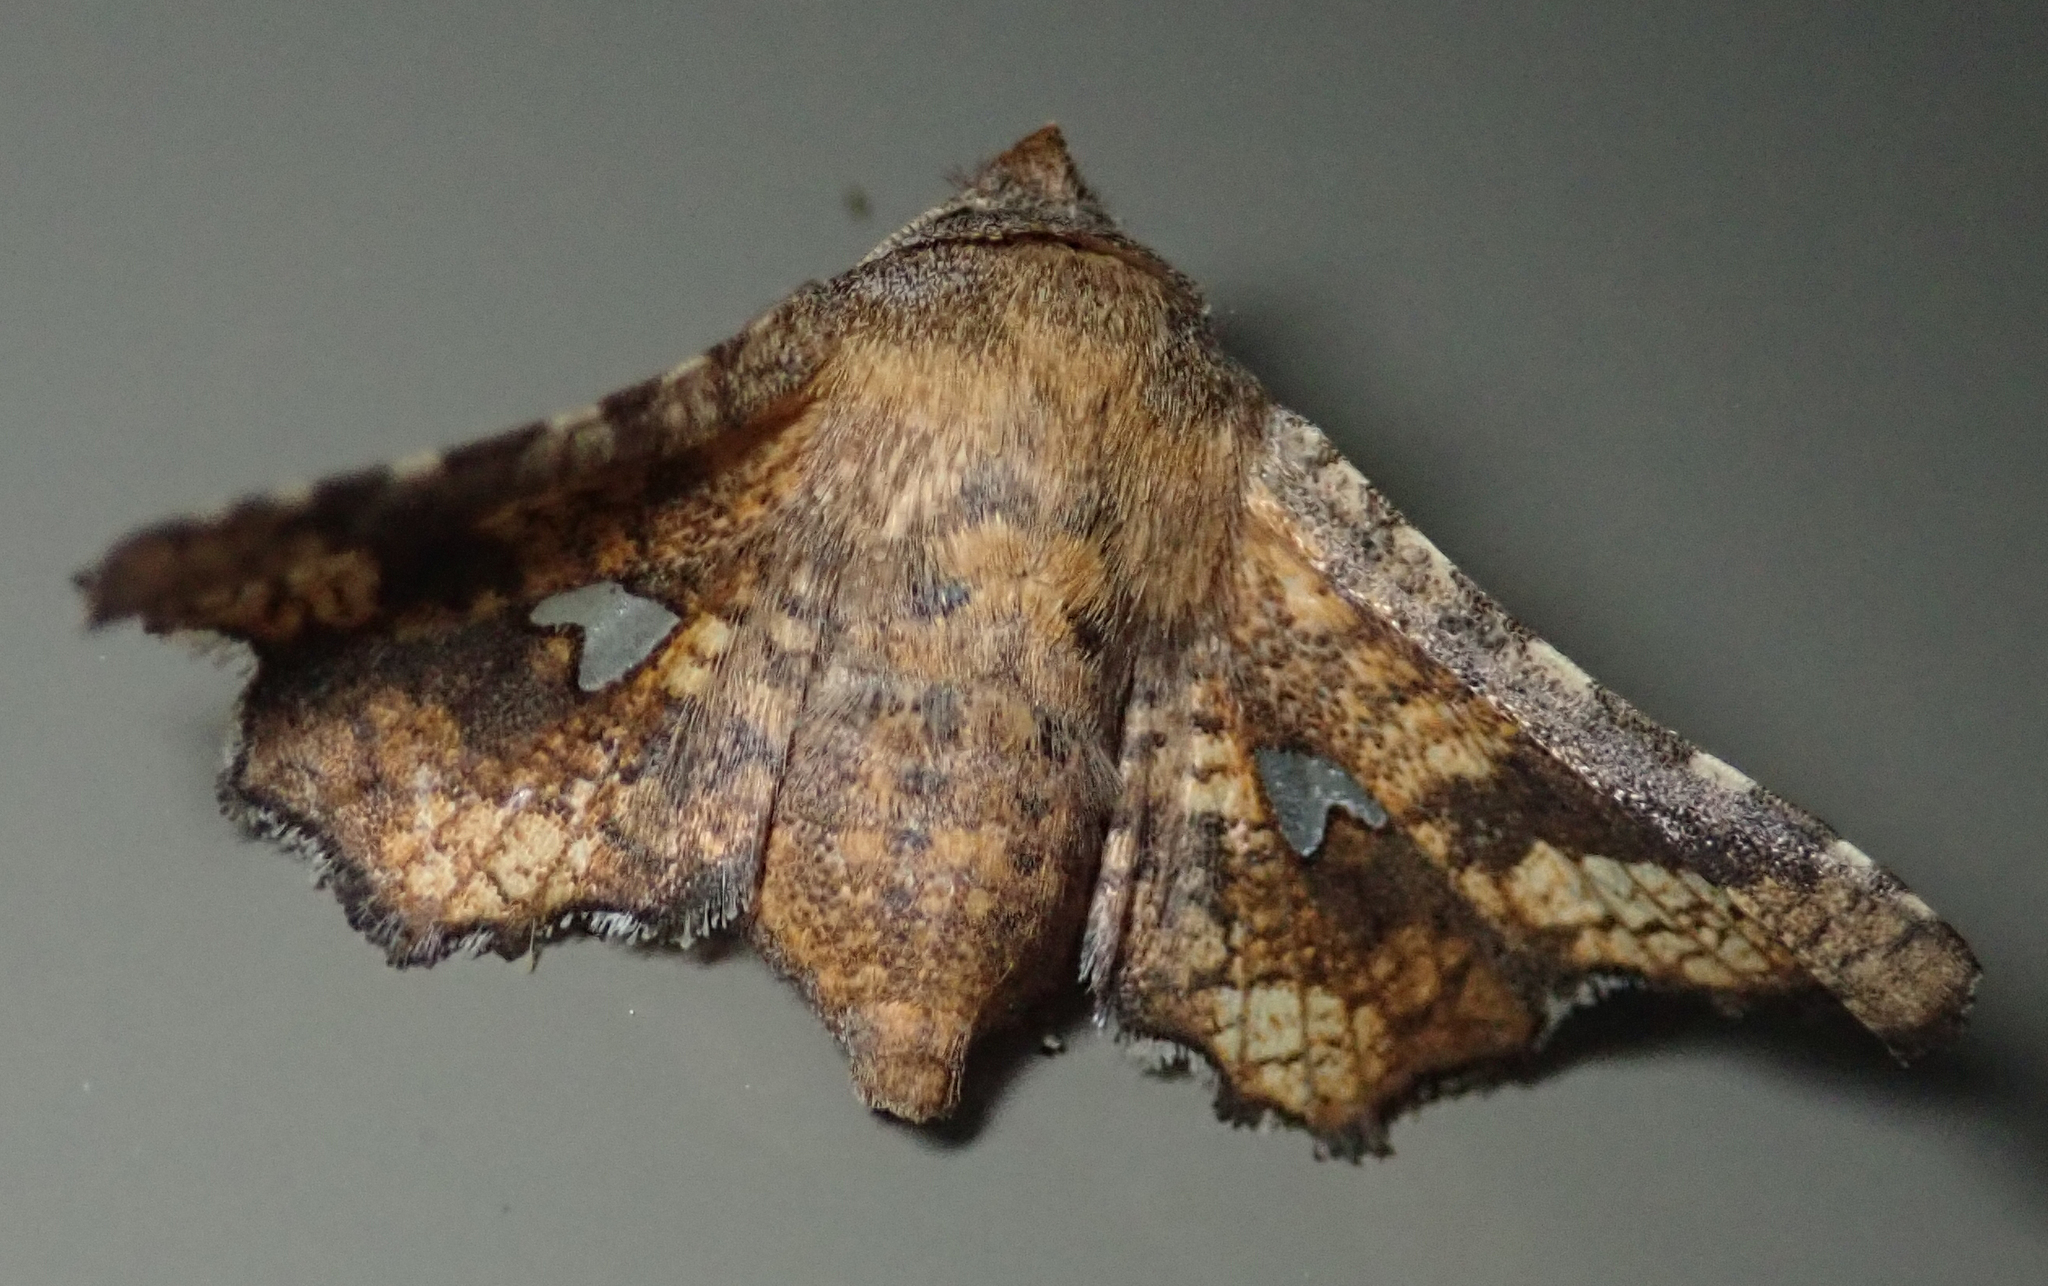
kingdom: Animalia
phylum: Arthropoda
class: Insecta
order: Lepidoptera
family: Thyrididae
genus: Dysodia
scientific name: Dysodia constellata
